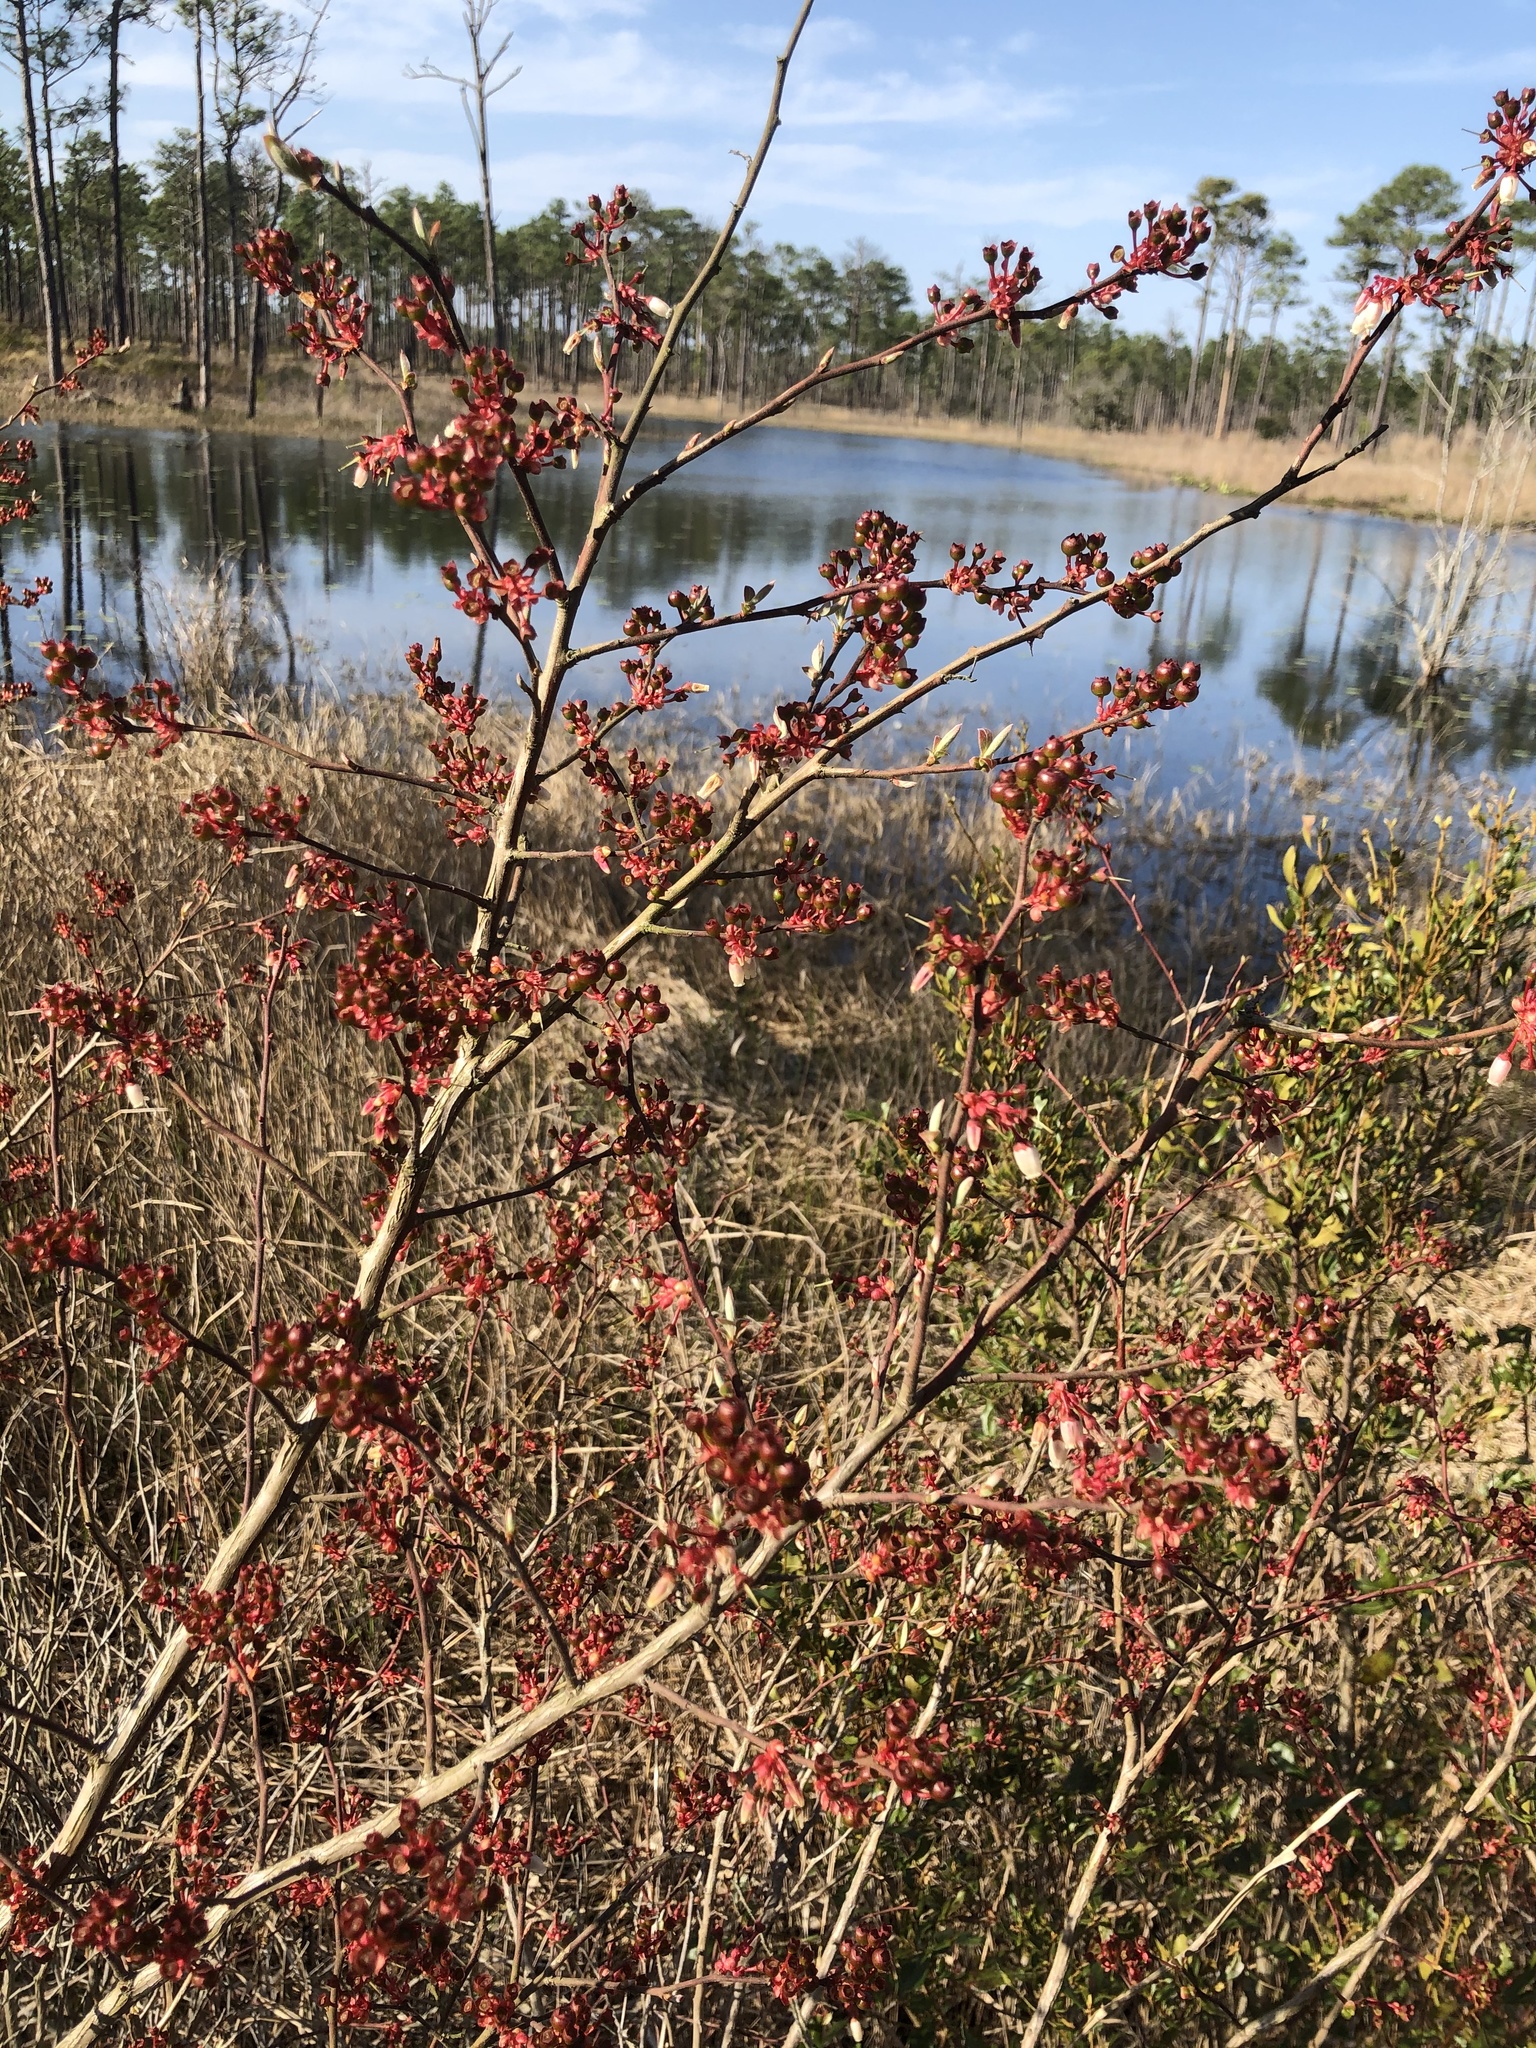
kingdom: Plantae
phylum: Tracheophyta
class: Magnoliopsida
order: Ericales
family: Ericaceae
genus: Vaccinium
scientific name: Vaccinium corymbosum
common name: Blueberry
